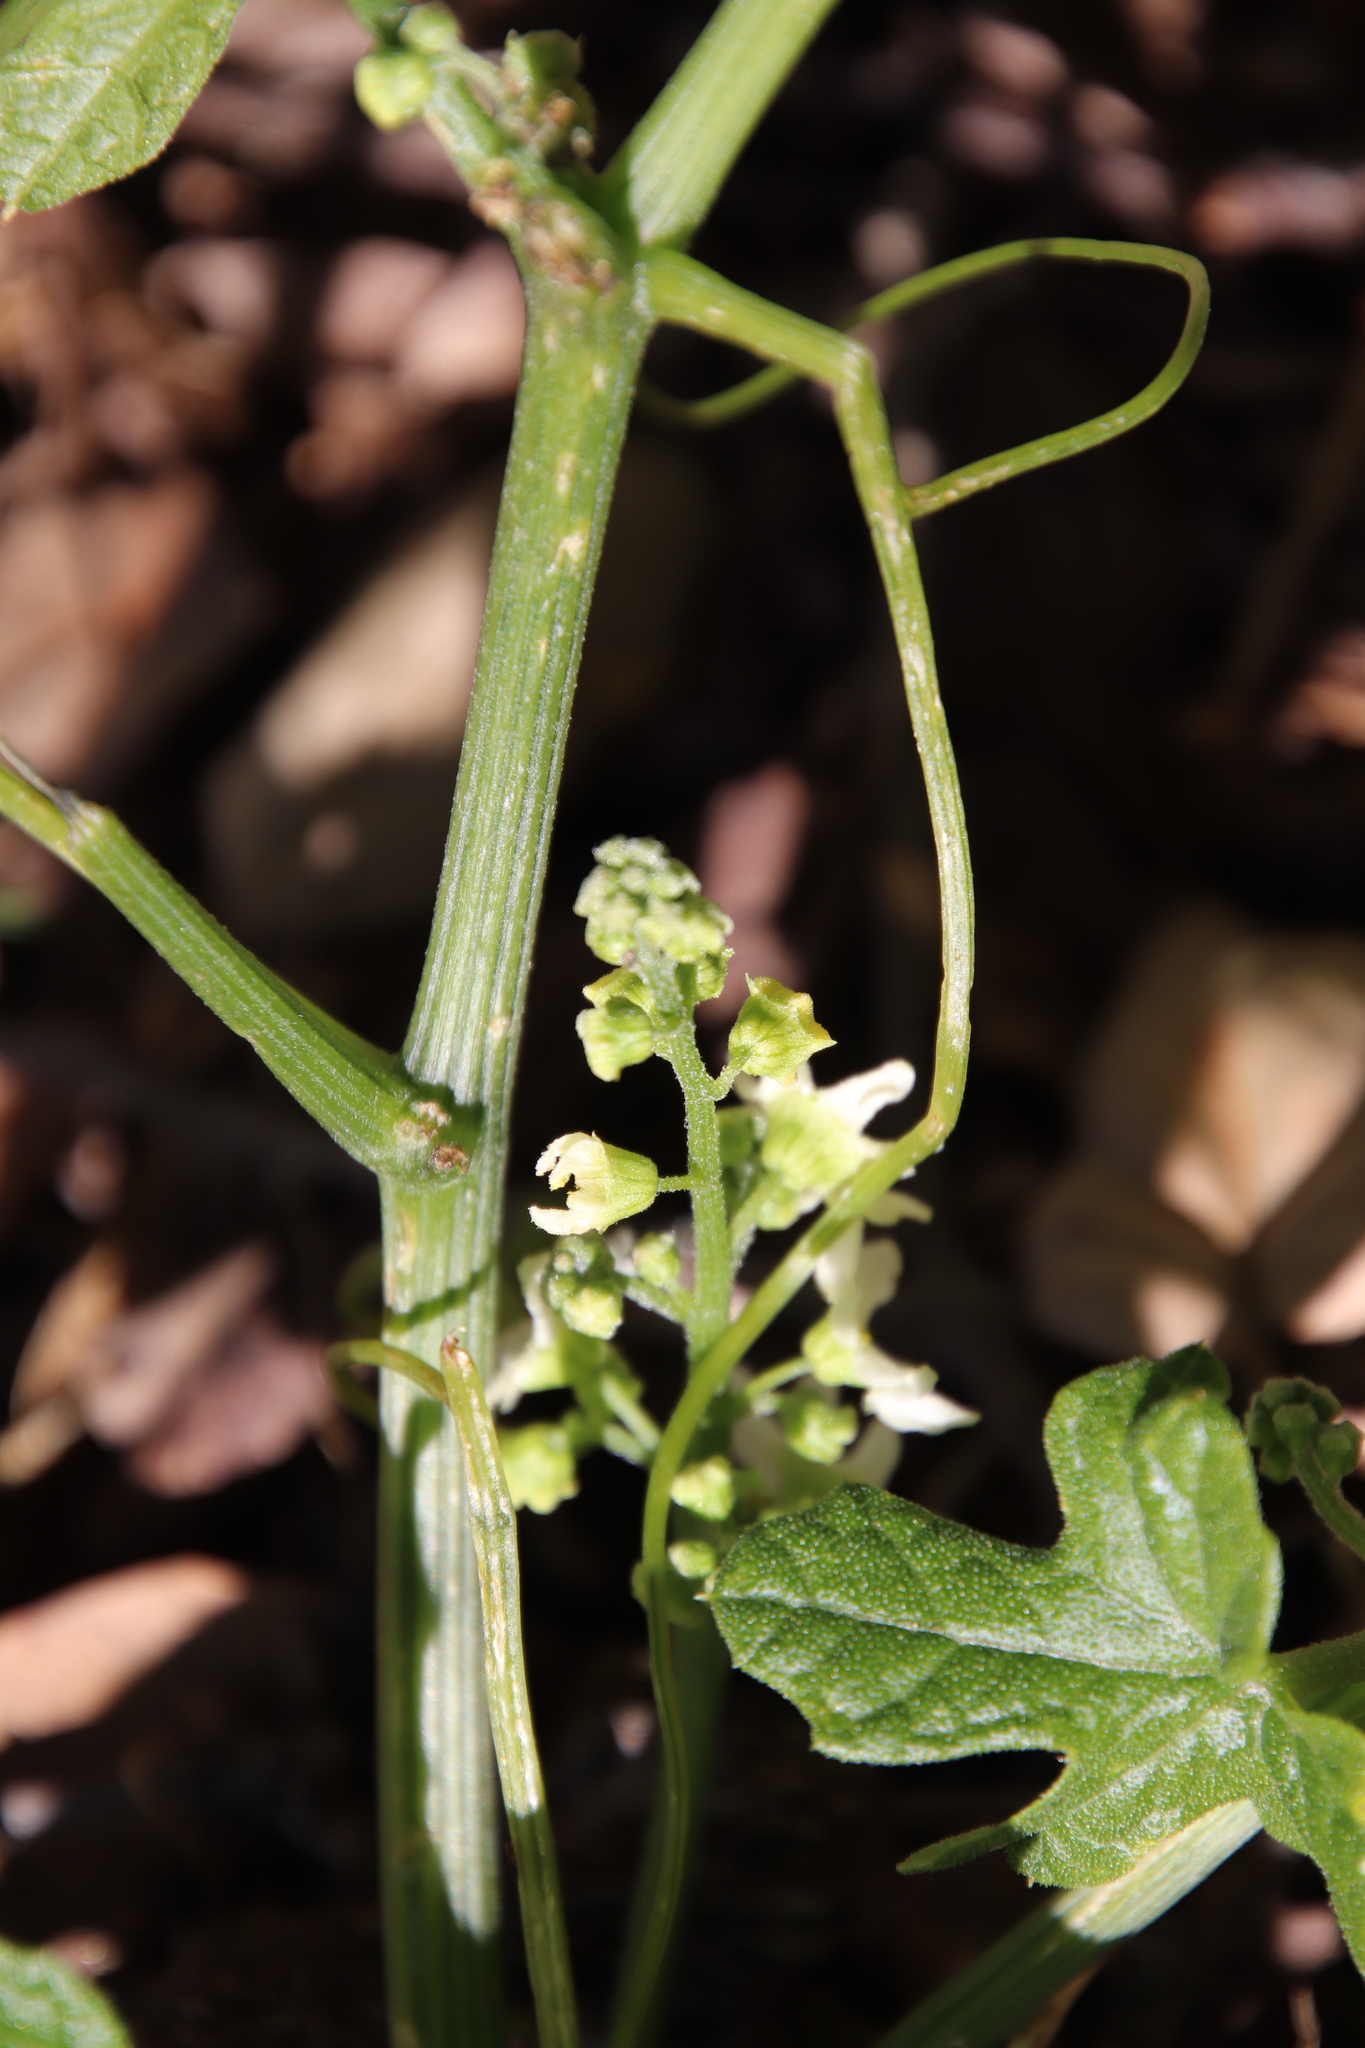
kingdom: Plantae
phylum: Tracheophyta
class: Magnoliopsida
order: Cucurbitales
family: Cucurbitaceae
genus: Marah
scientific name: Marah macrocarpa
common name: Cucamonga manroot
